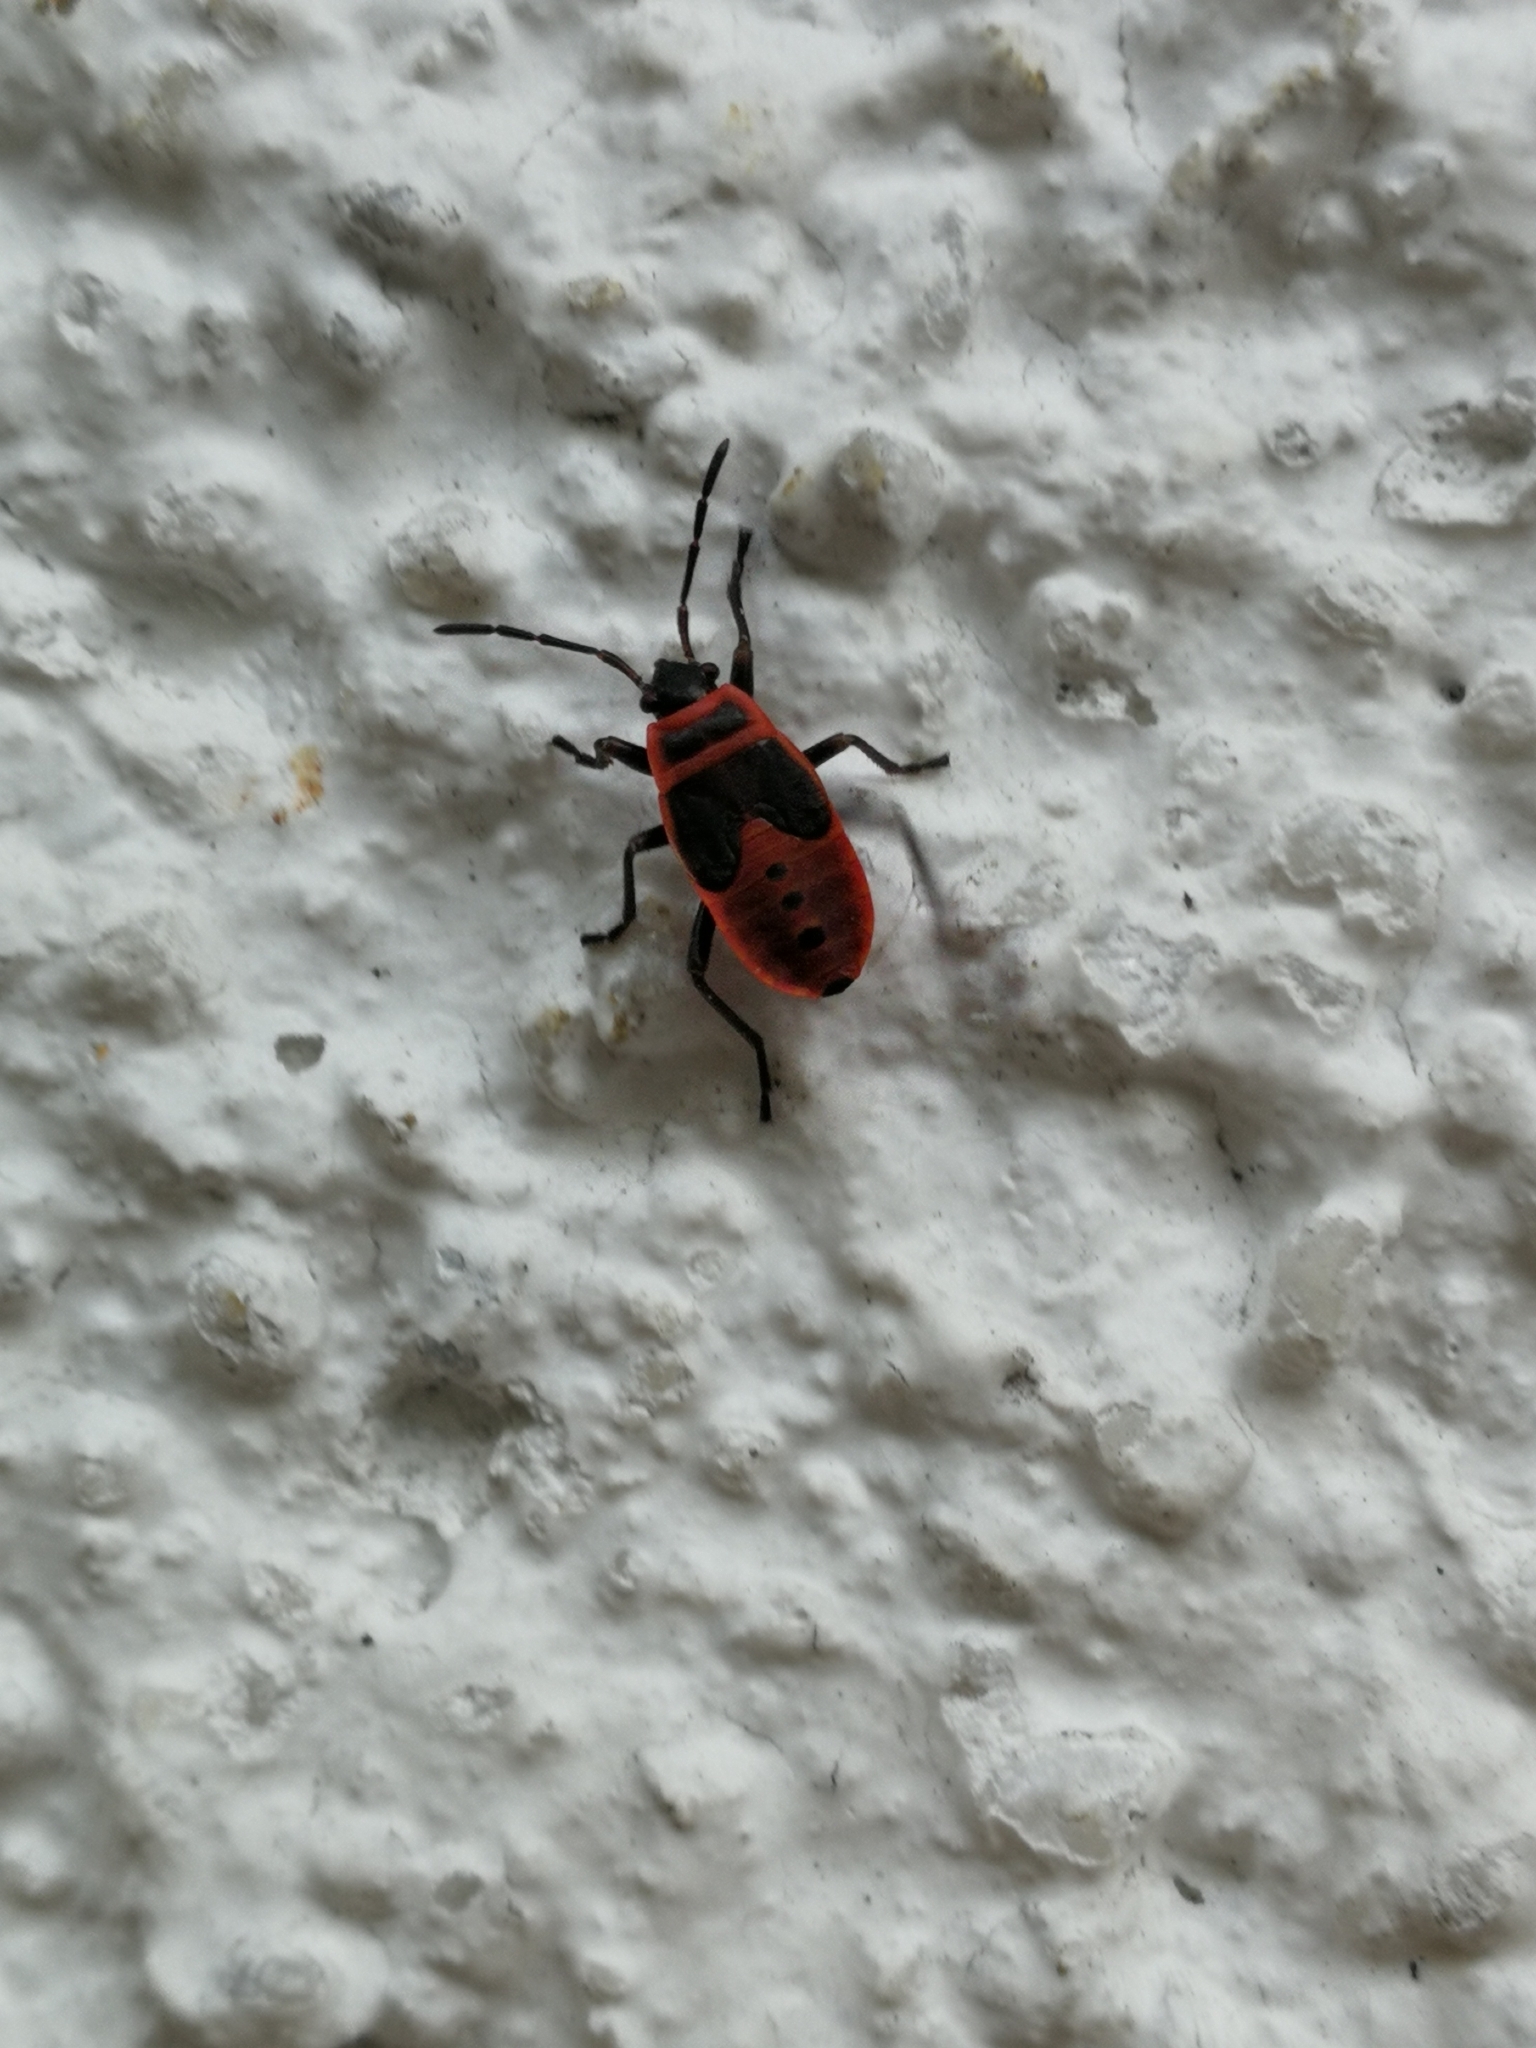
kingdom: Animalia
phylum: Arthropoda
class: Insecta
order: Hemiptera
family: Pyrrhocoridae
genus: Pyrrhocoris
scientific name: Pyrrhocoris apterus
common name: Firebug
